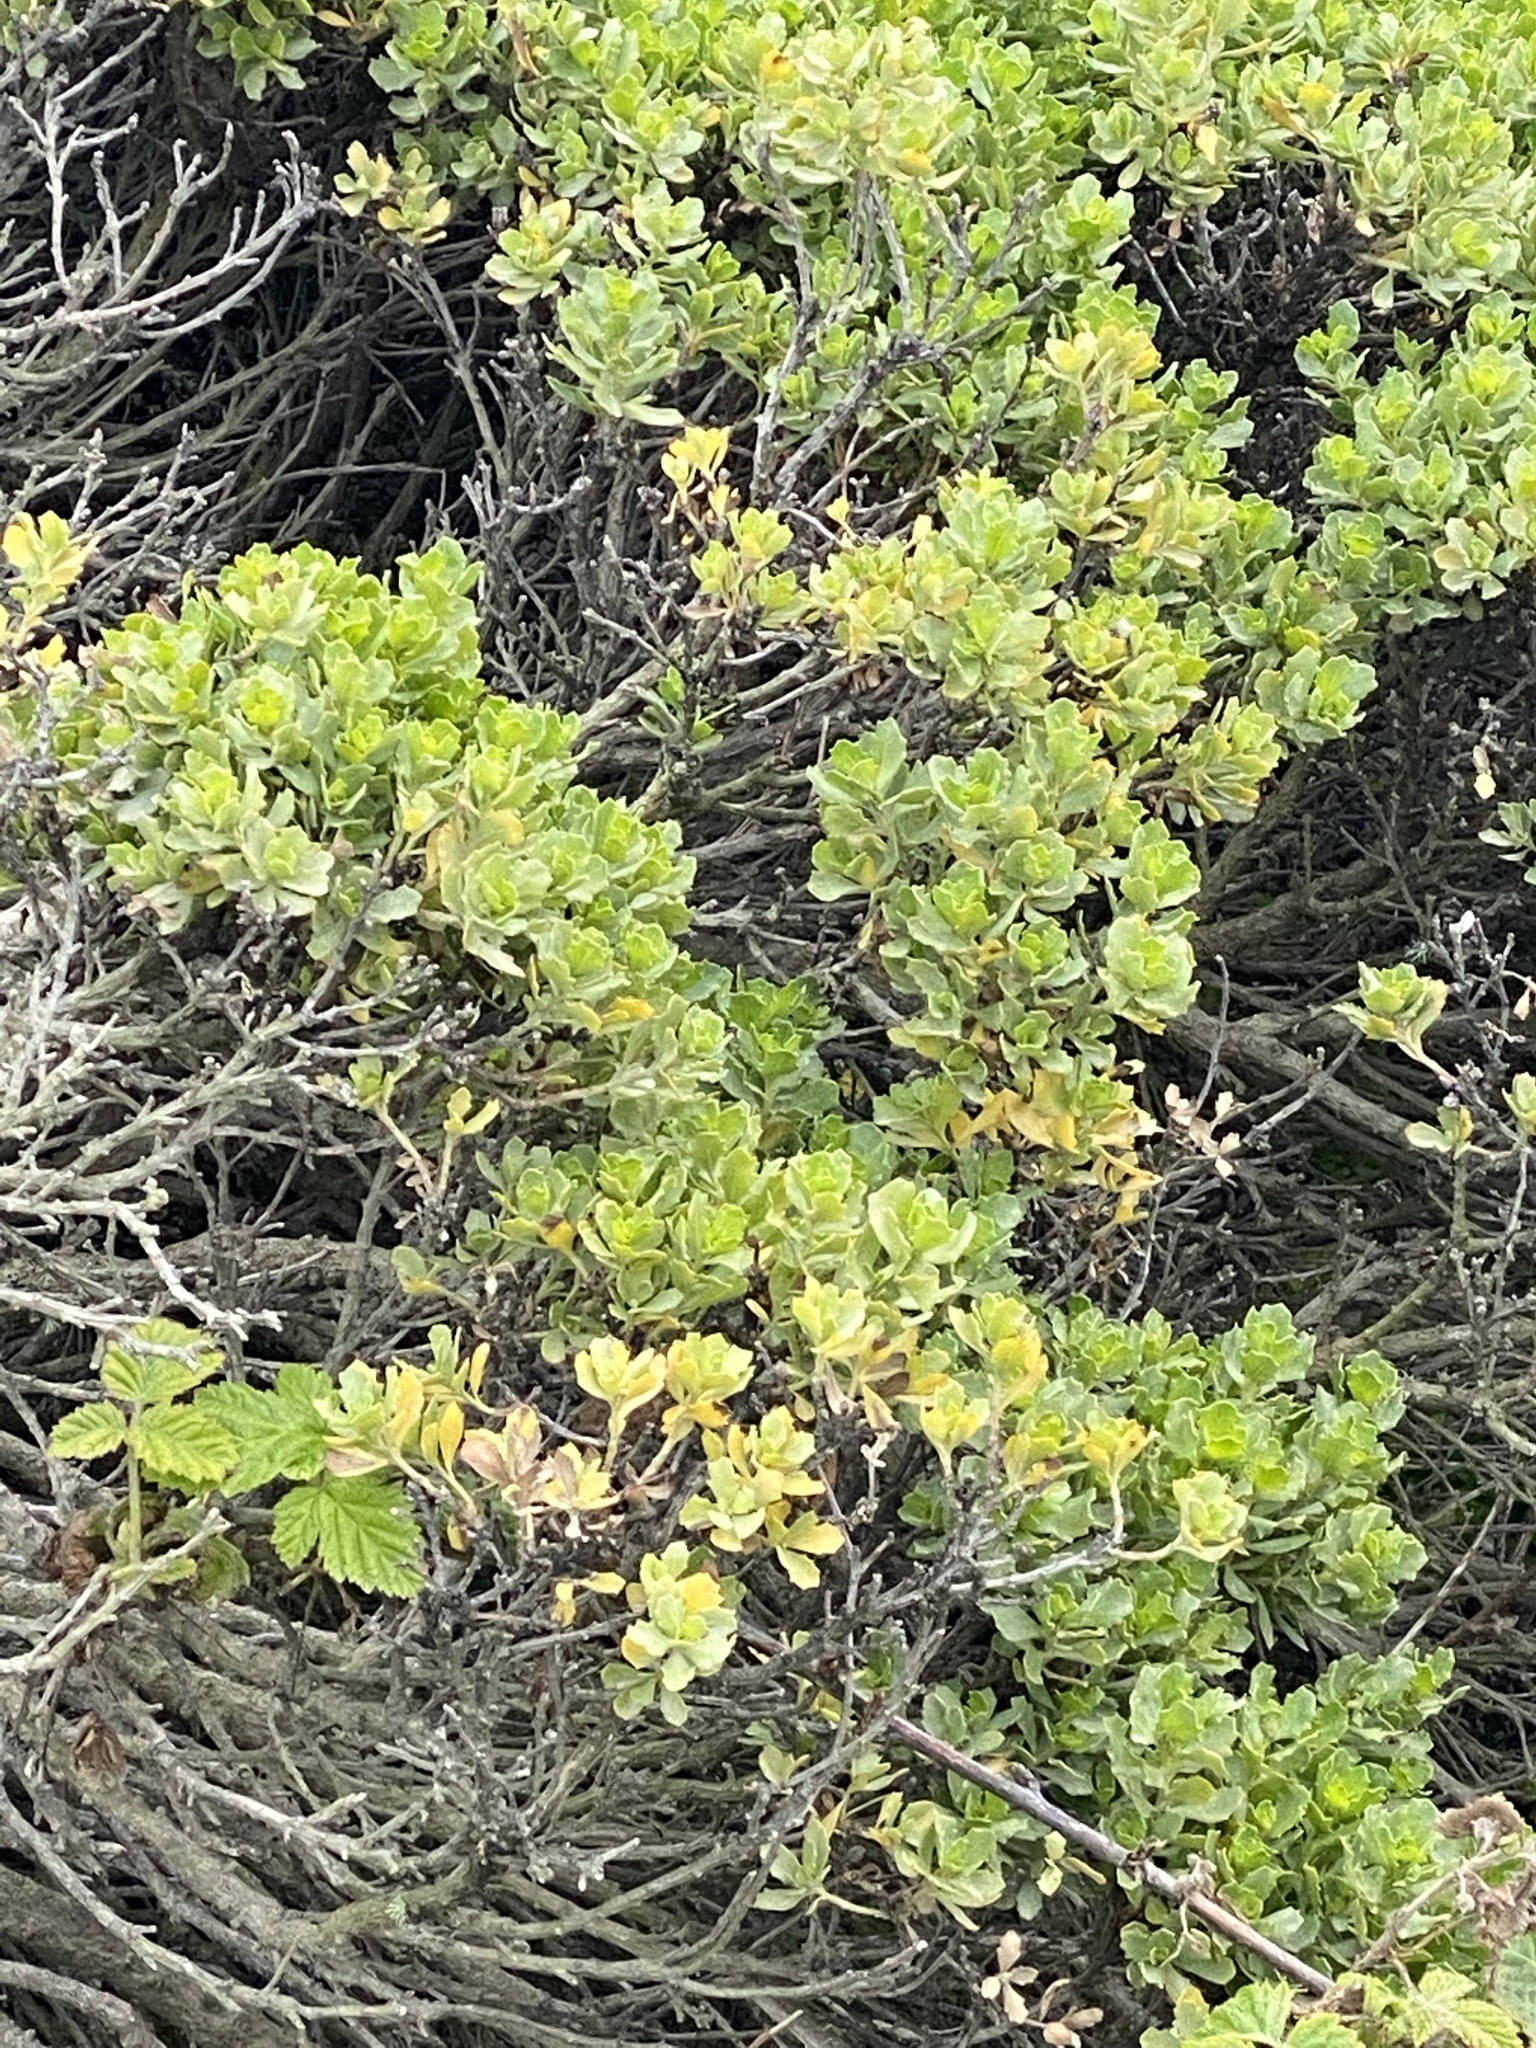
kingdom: Plantae
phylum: Tracheophyta
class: Magnoliopsida
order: Asterales
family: Asteraceae
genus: Baccharis
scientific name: Baccharis pilularis
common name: Coyotebrush
